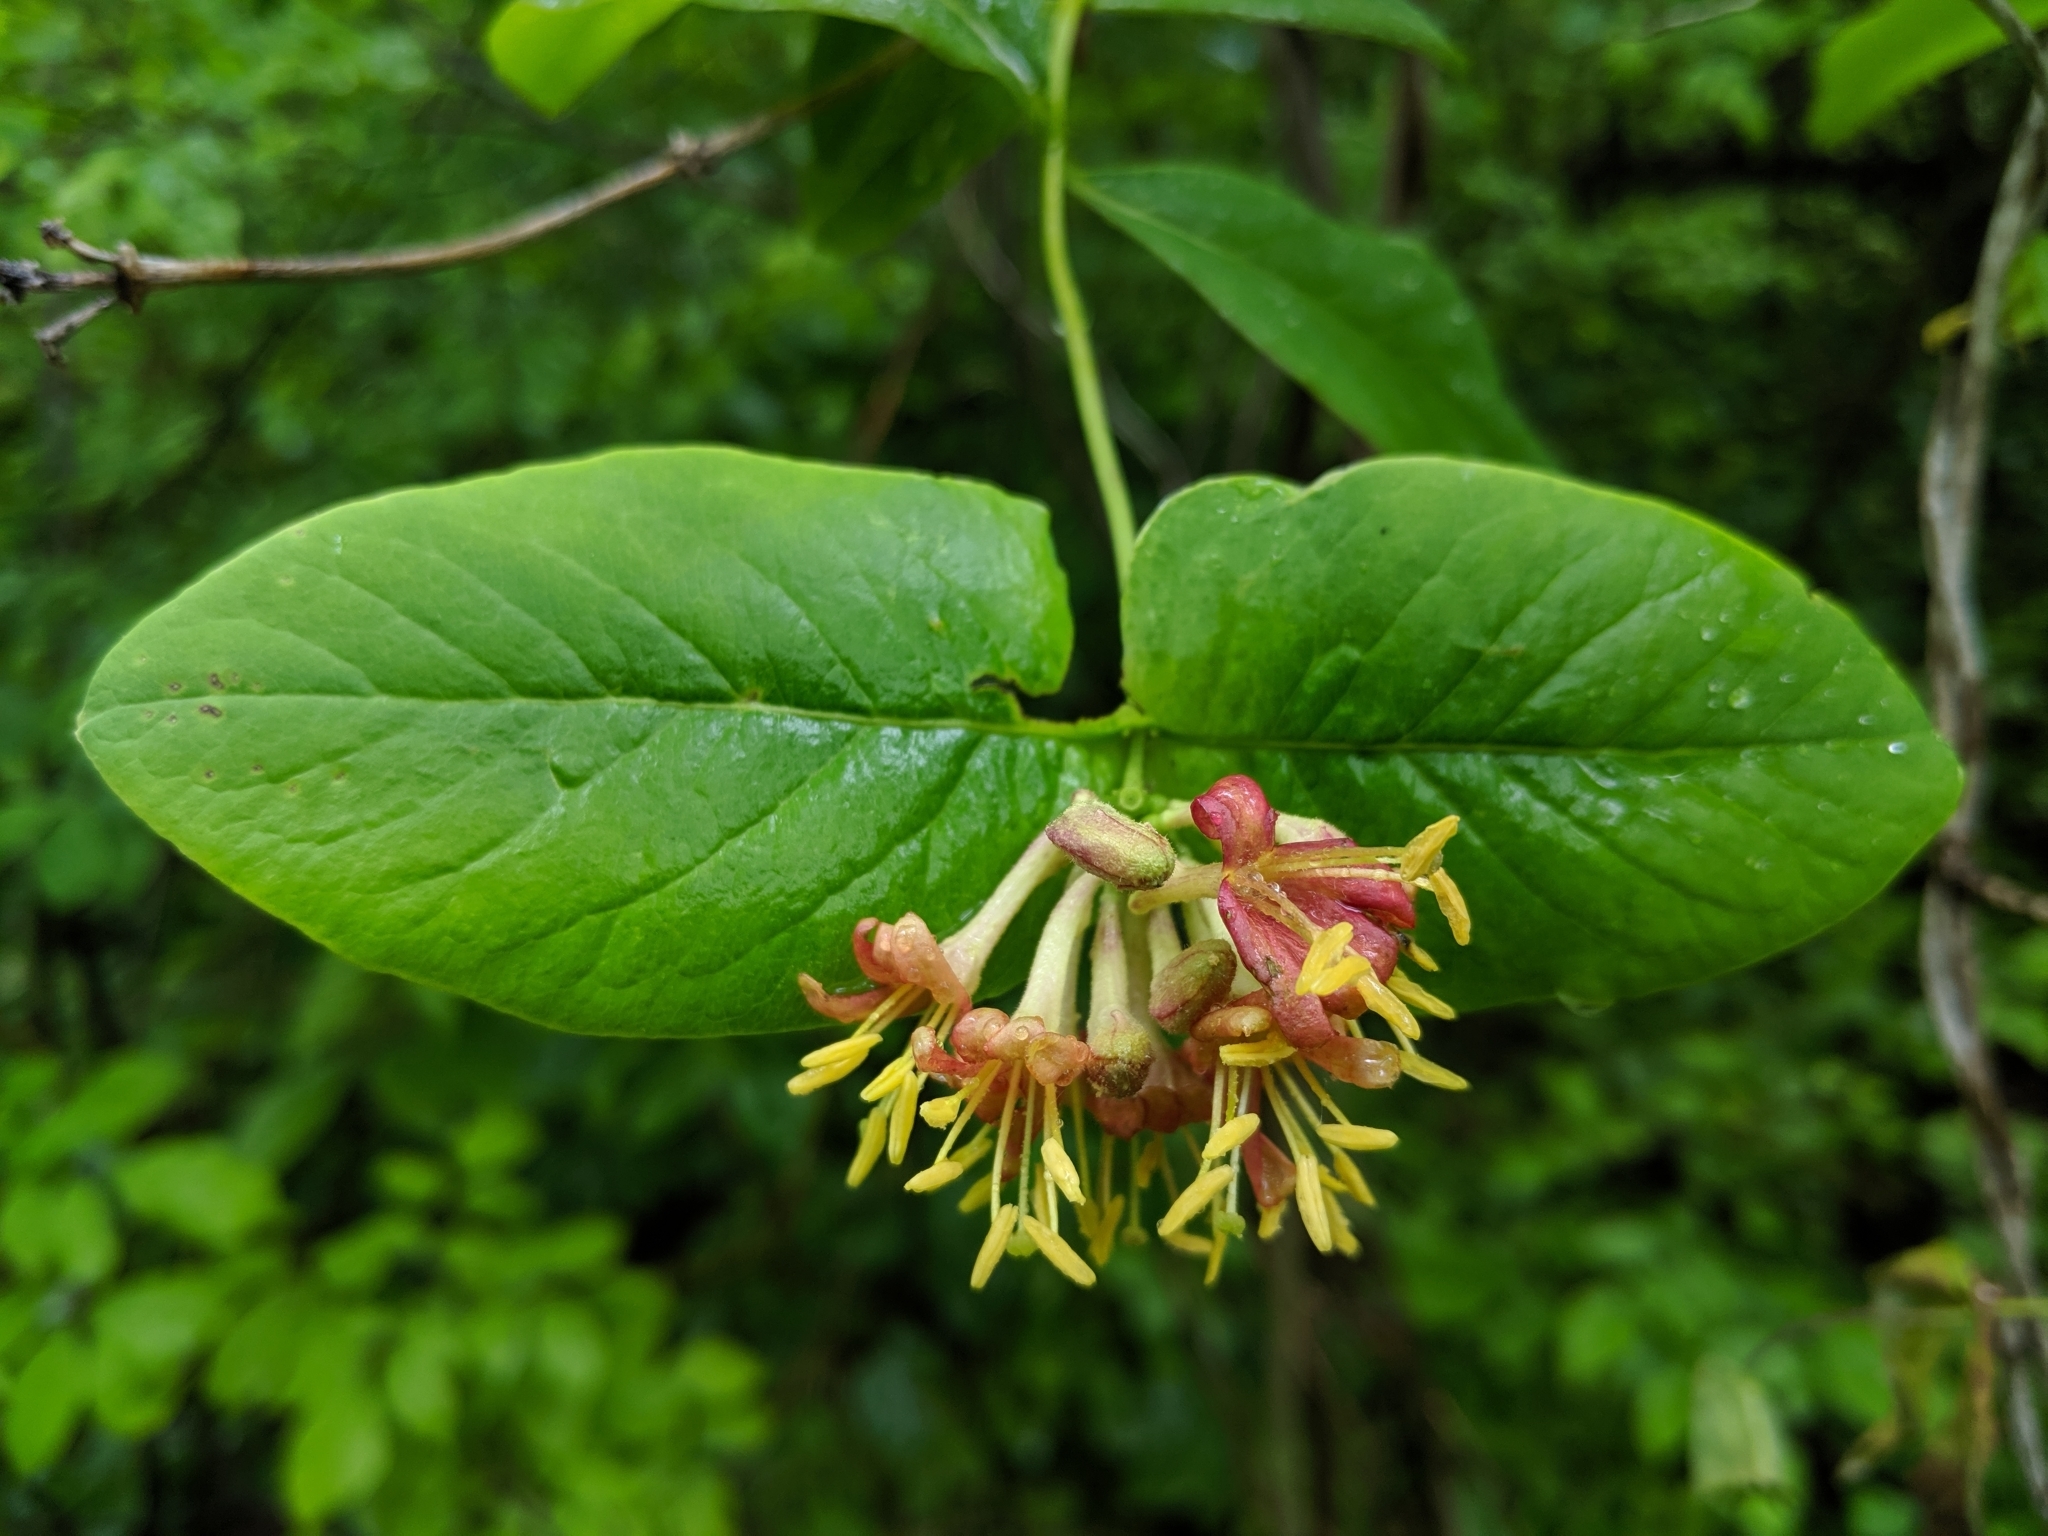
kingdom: Plantae
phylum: Tracheophyta
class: Magnoliopsida
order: Dipsacales
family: Caprifoliaceae
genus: Lonicera
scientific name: Lonicera dioica
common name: Limber honeysuckle
